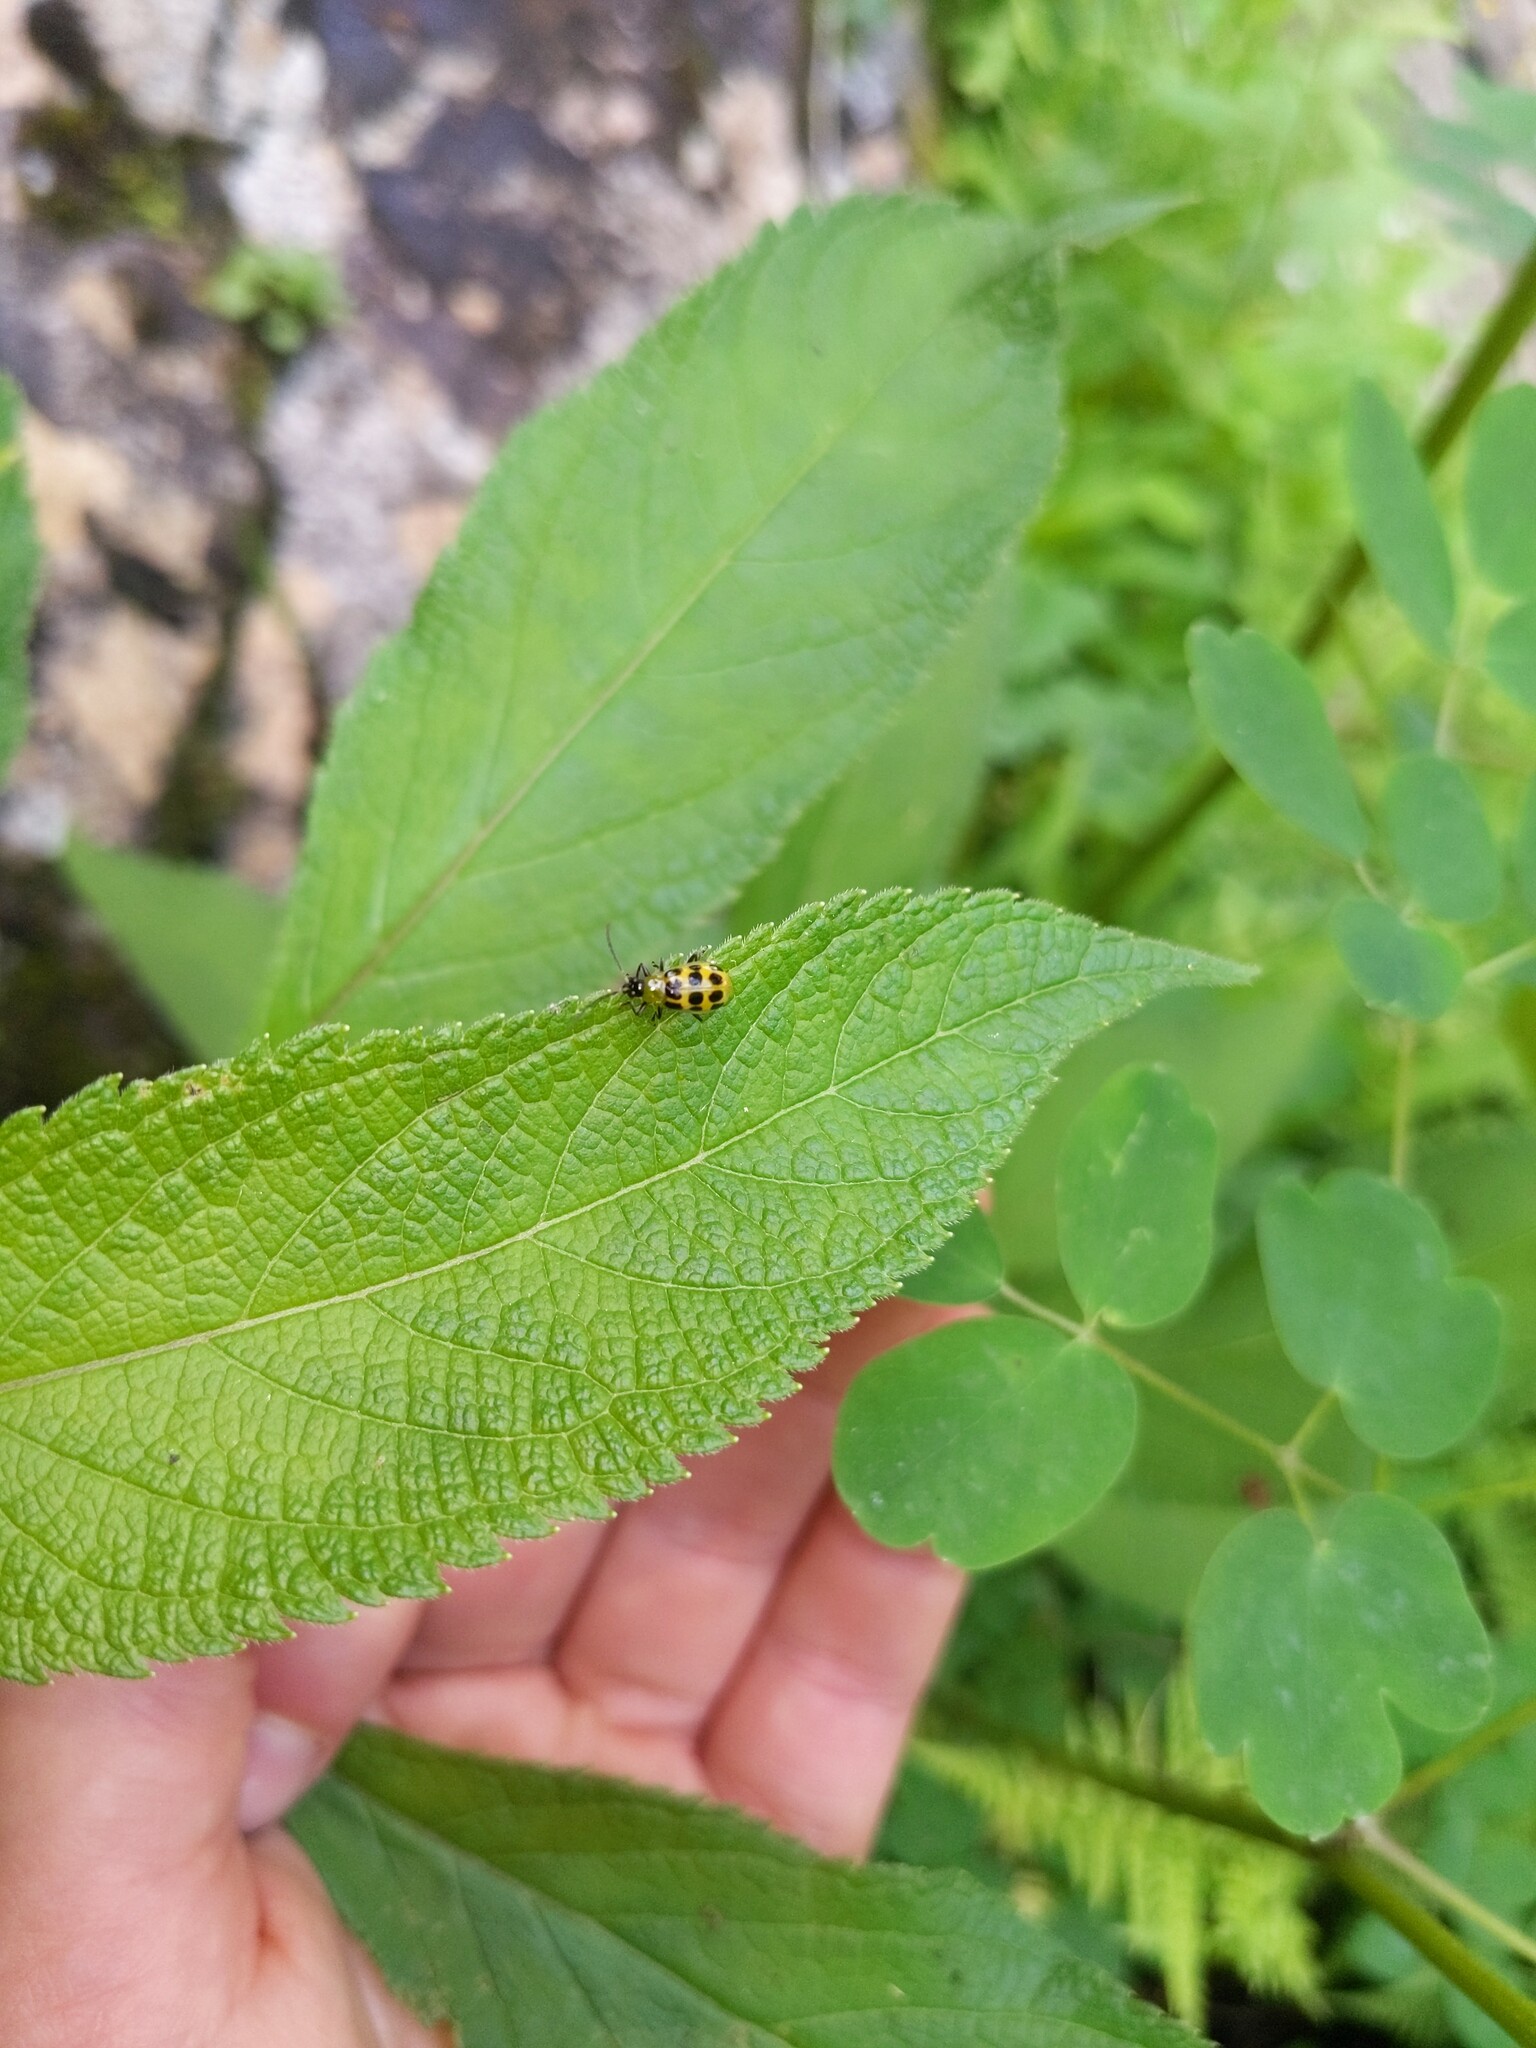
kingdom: Animalia
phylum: Arthropoda
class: Insecta
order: Coleoptera
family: Chrysomelidae
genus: Diabrotica
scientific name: Diabrotica undecimpunctata
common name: Spotted cucumber beetle
